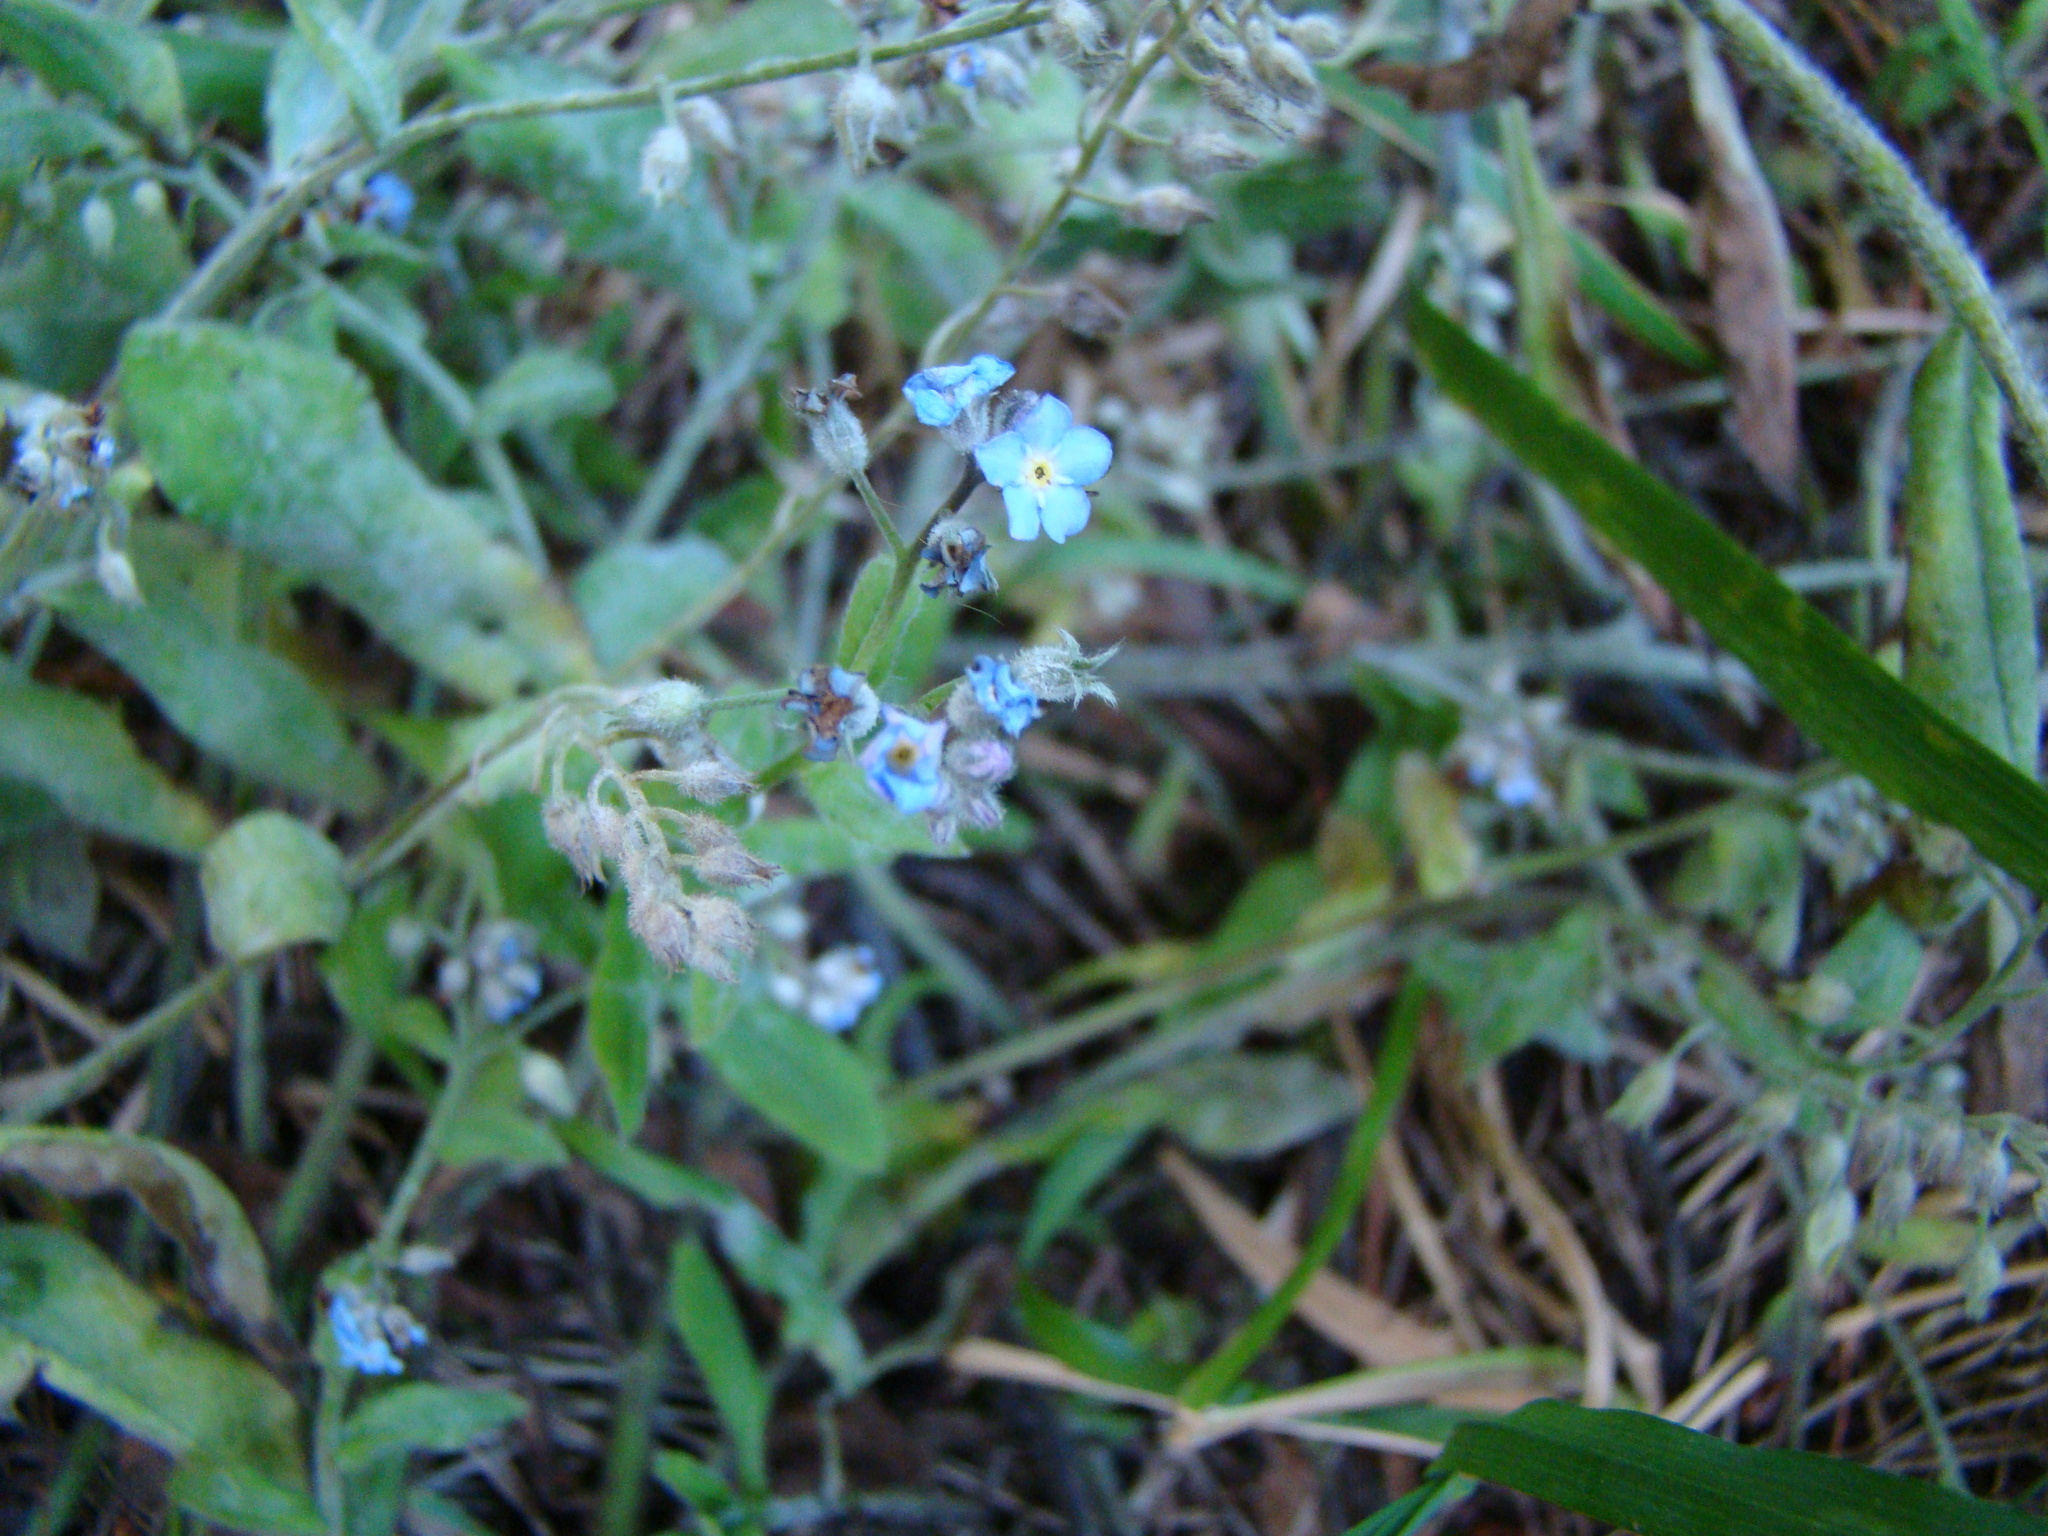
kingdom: Plantae
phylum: Tracheophyta
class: Magnoliopsida
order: Boraginales
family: Boraginaceae
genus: Myosotis
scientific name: Myosotis arvensis
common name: Field forget-me-not
